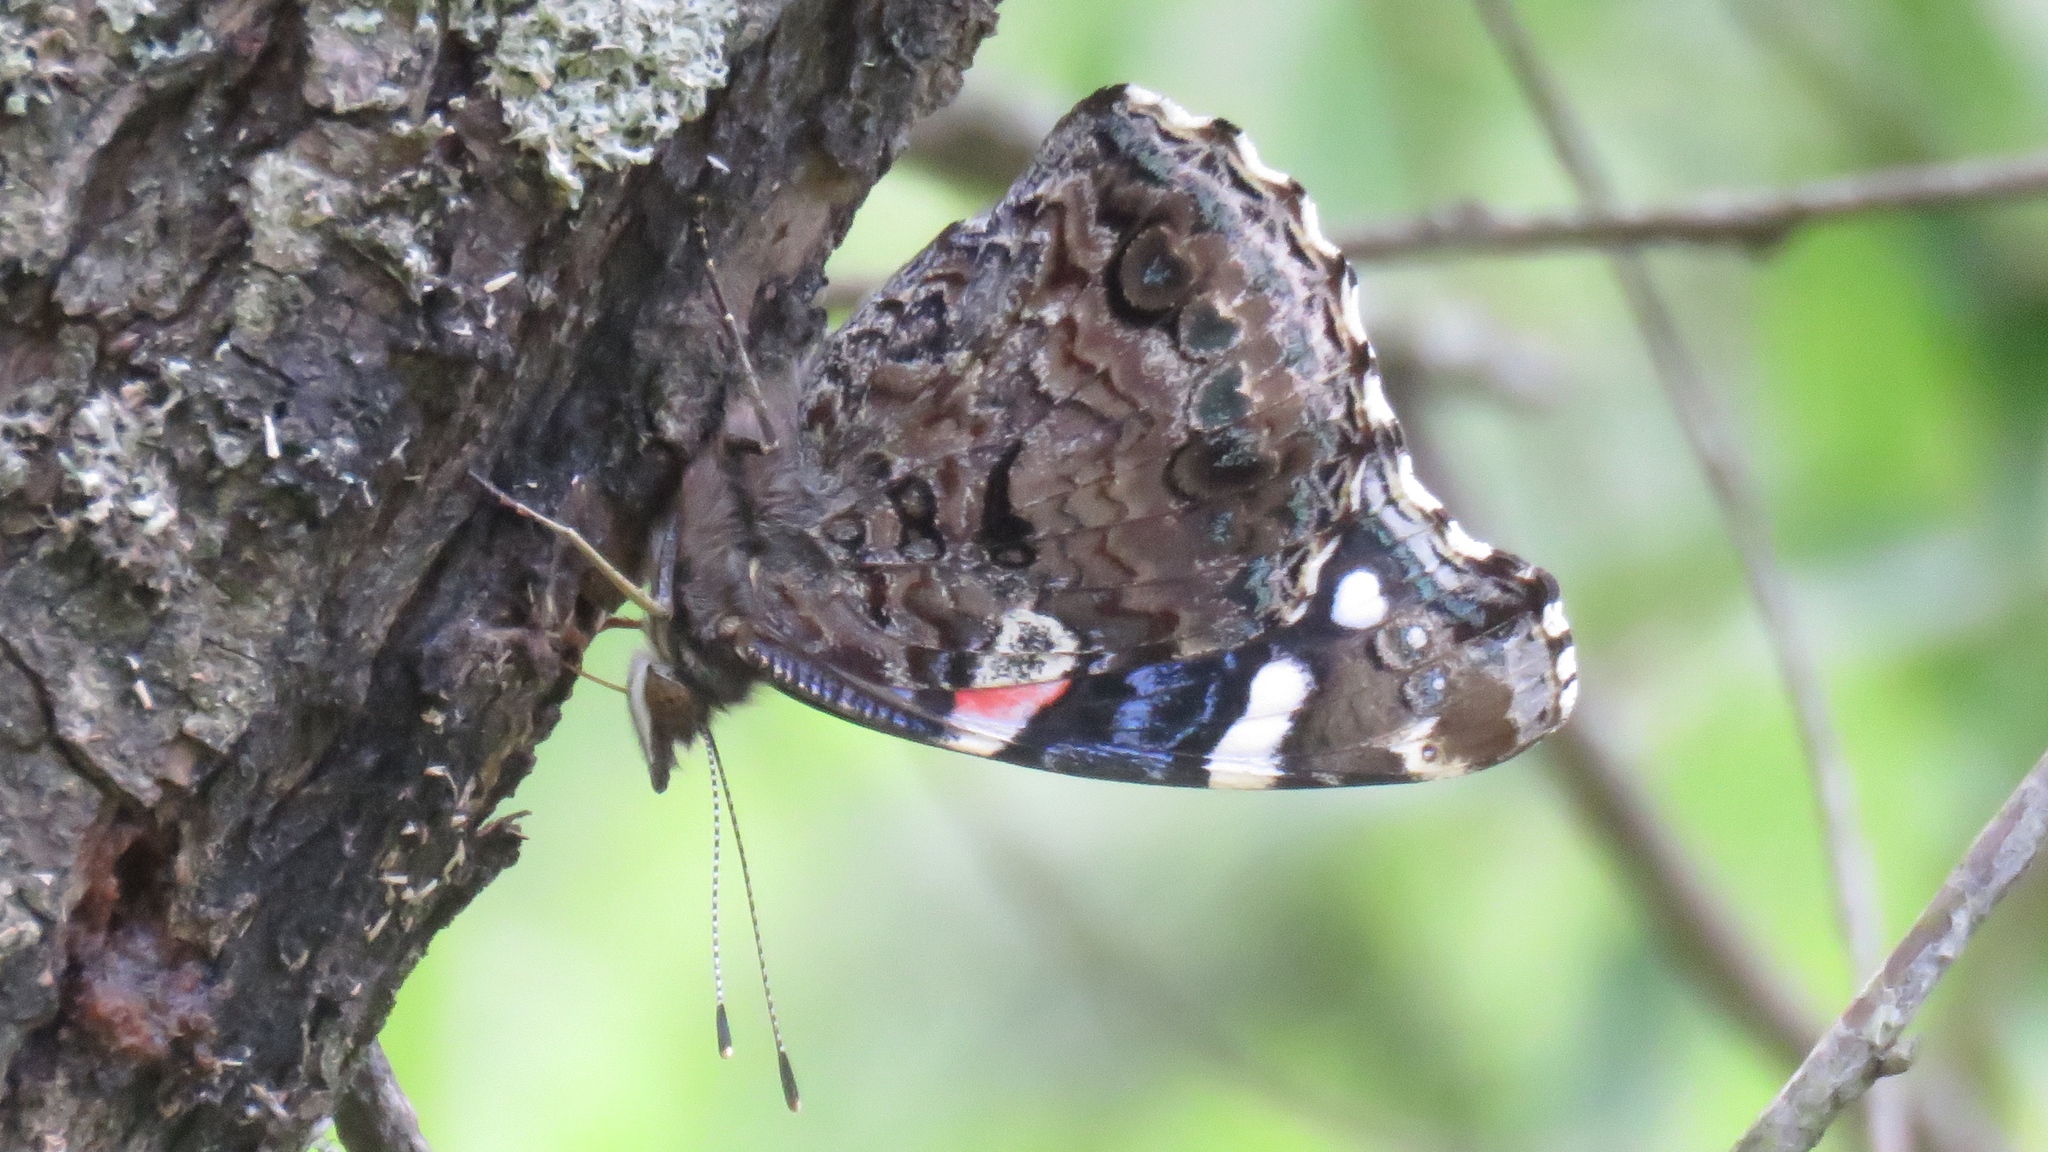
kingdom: Animalia
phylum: Arthropoda
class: Insecta
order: Lepidoptera
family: Nymphalidae
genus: Vanessa
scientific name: Vanessa atalanta
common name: Red admiral
